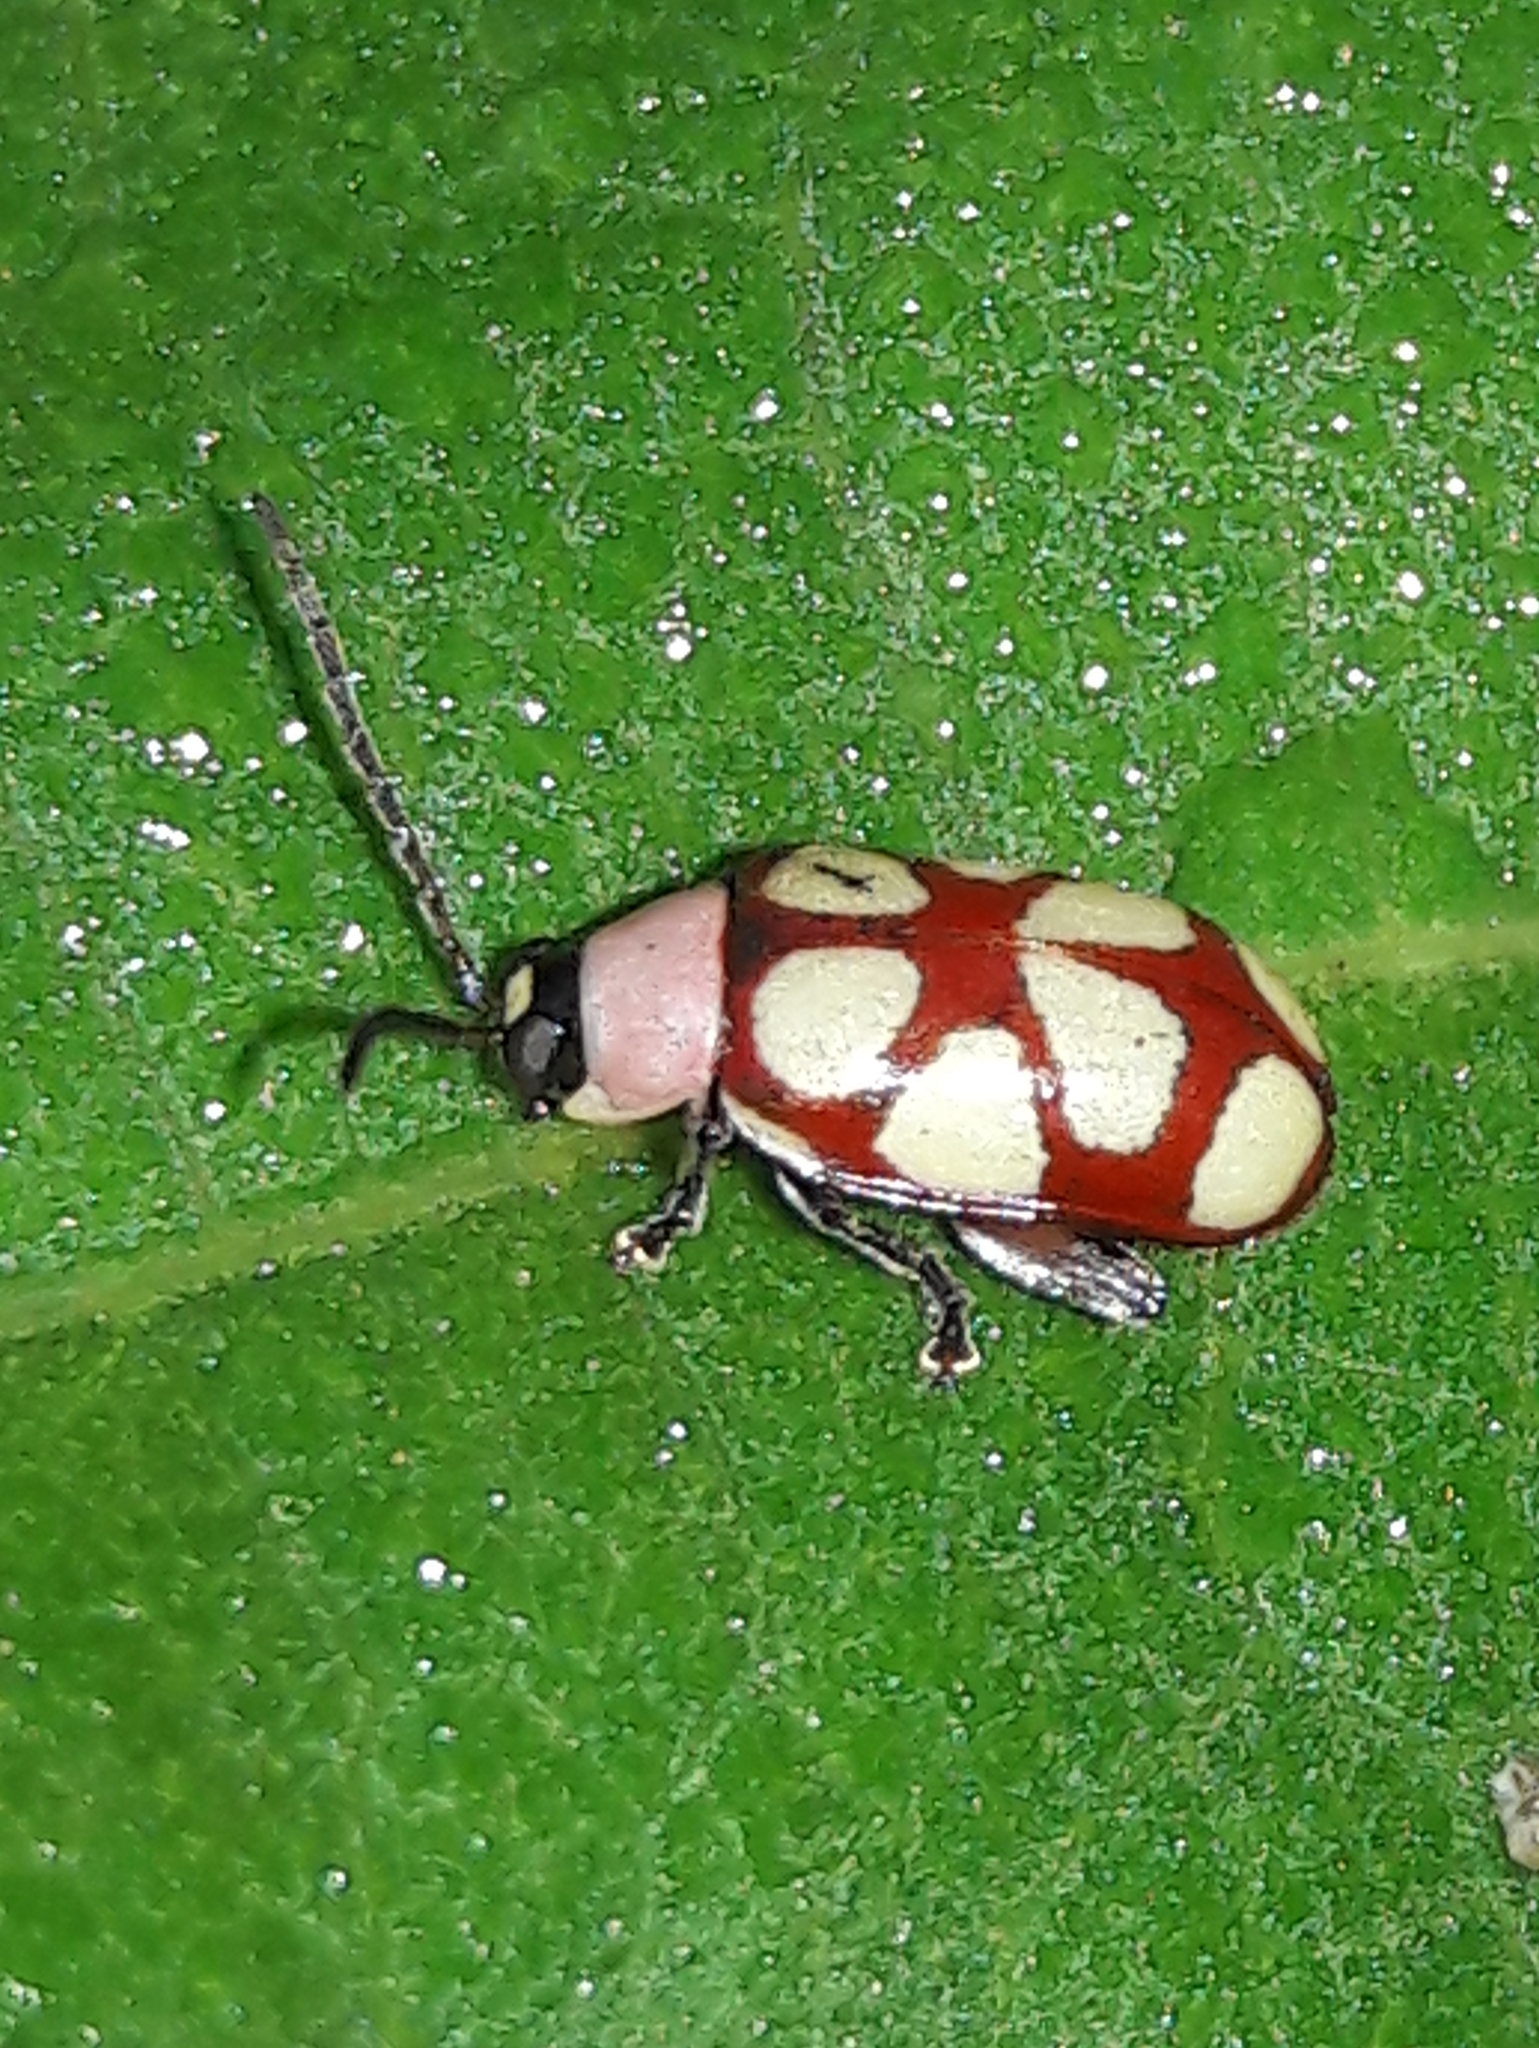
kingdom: Animalia
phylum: Arthropoda
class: Insecta
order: Coleoptera
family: Chrysomelidae
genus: Omophoita
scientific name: Omophoita
